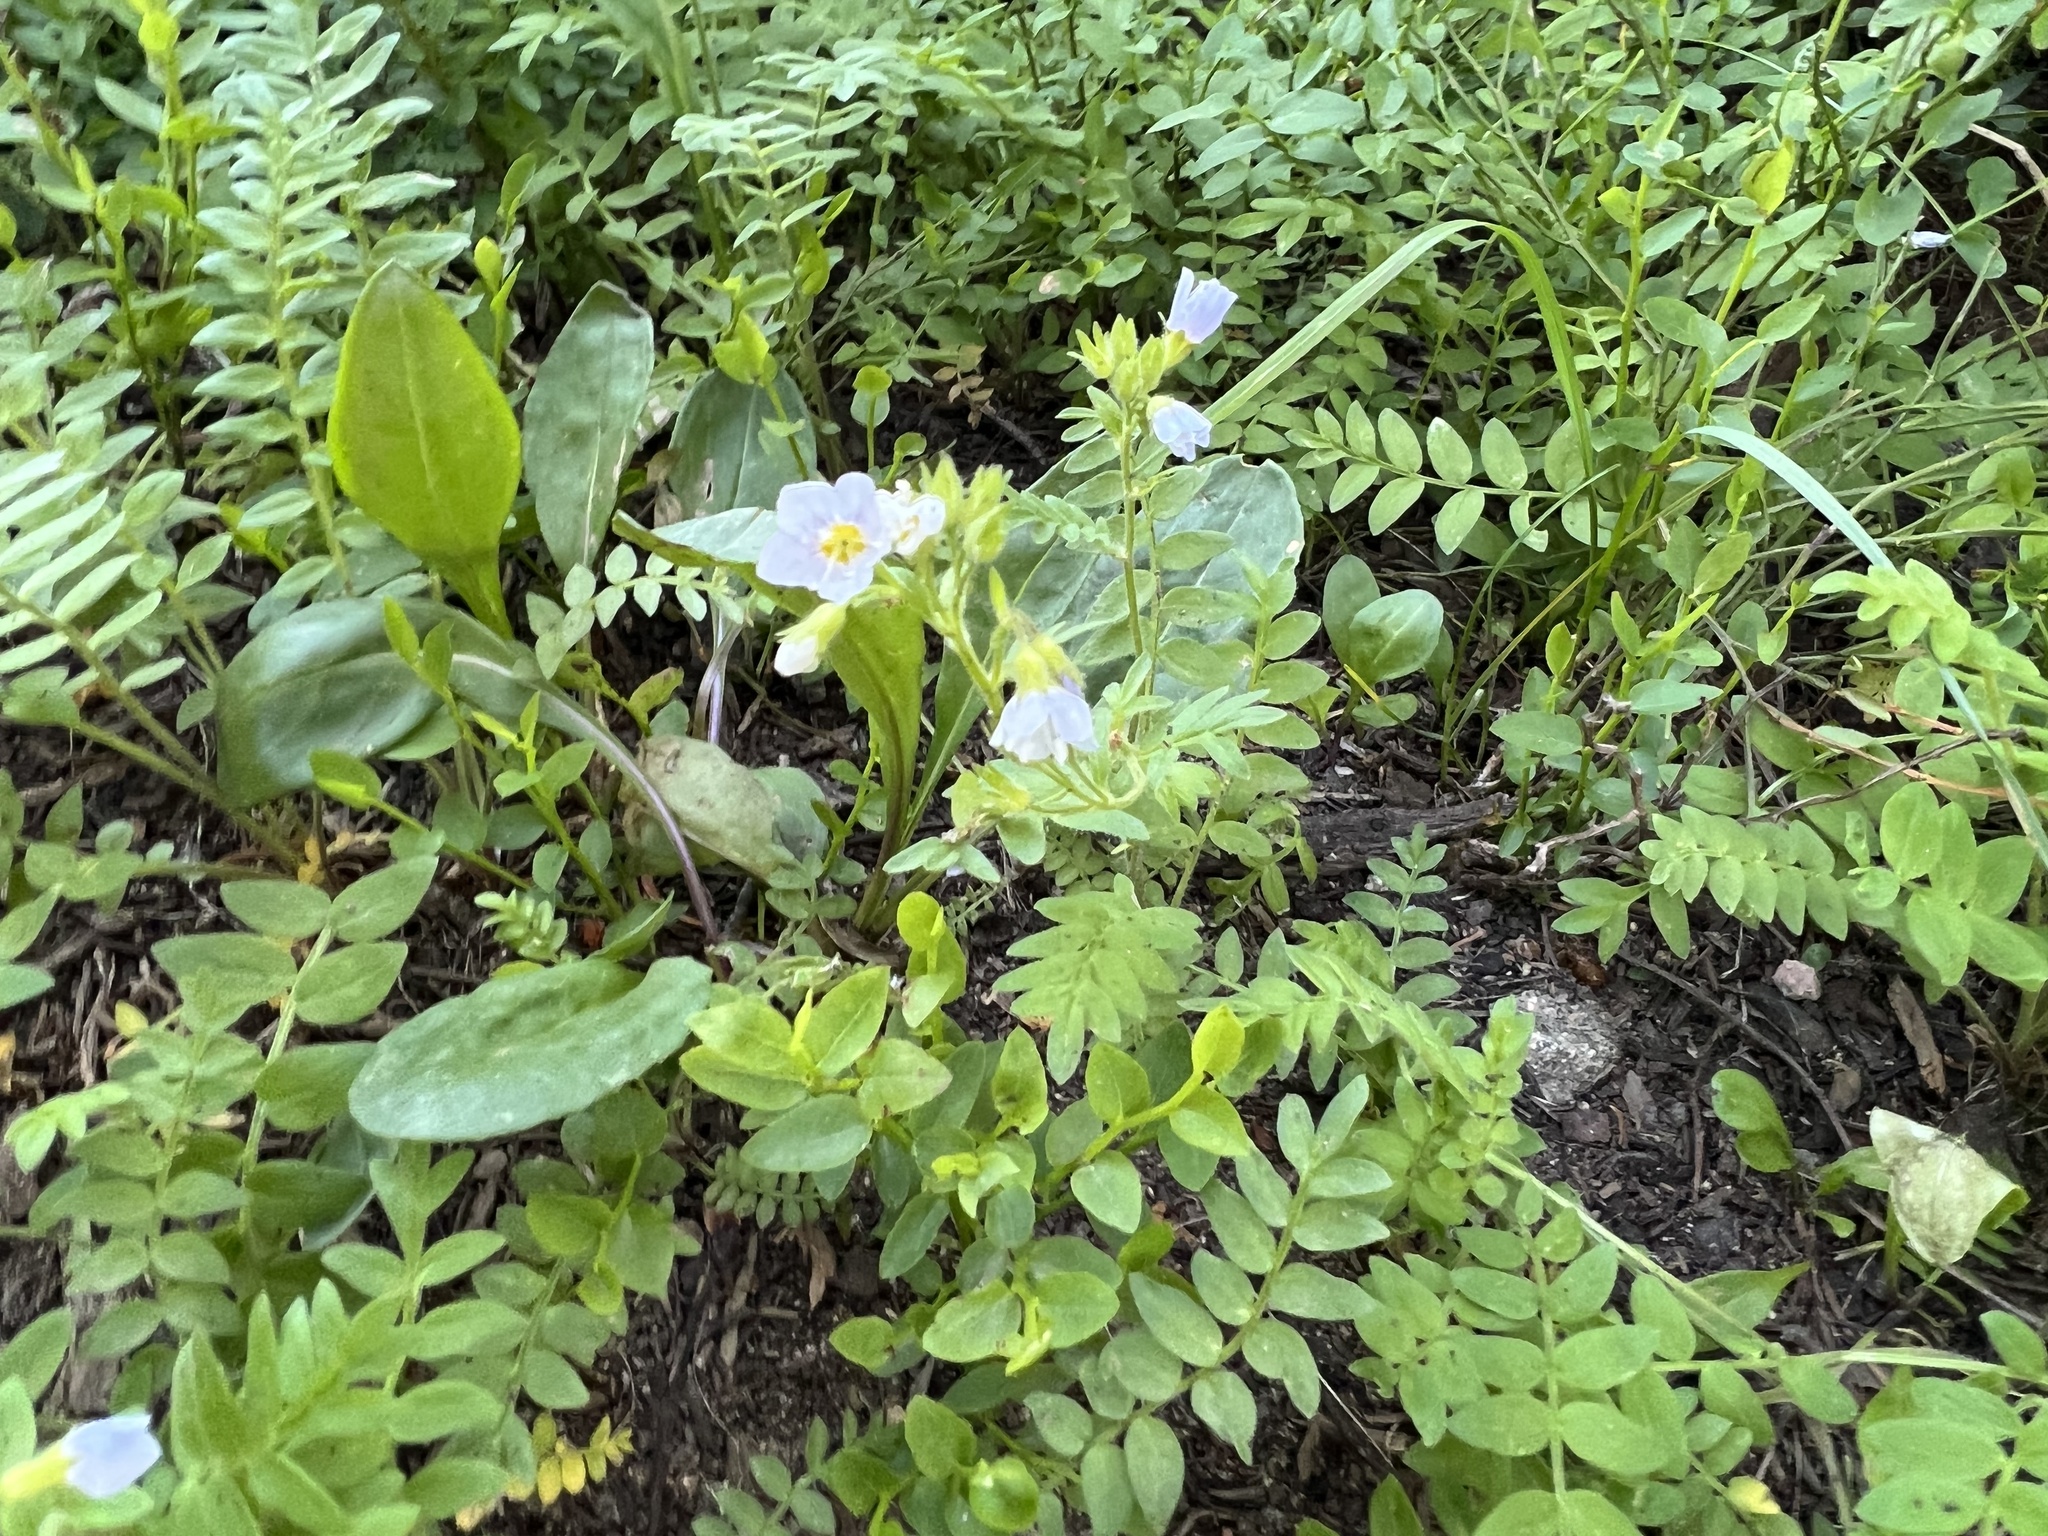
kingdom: Plantae
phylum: Tracheophyta
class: Magnoliopsida
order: Ericales
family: Polemoniaceae
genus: Polemonium
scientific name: Polemonium pulcherrimum
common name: Short jacob's-ladder
